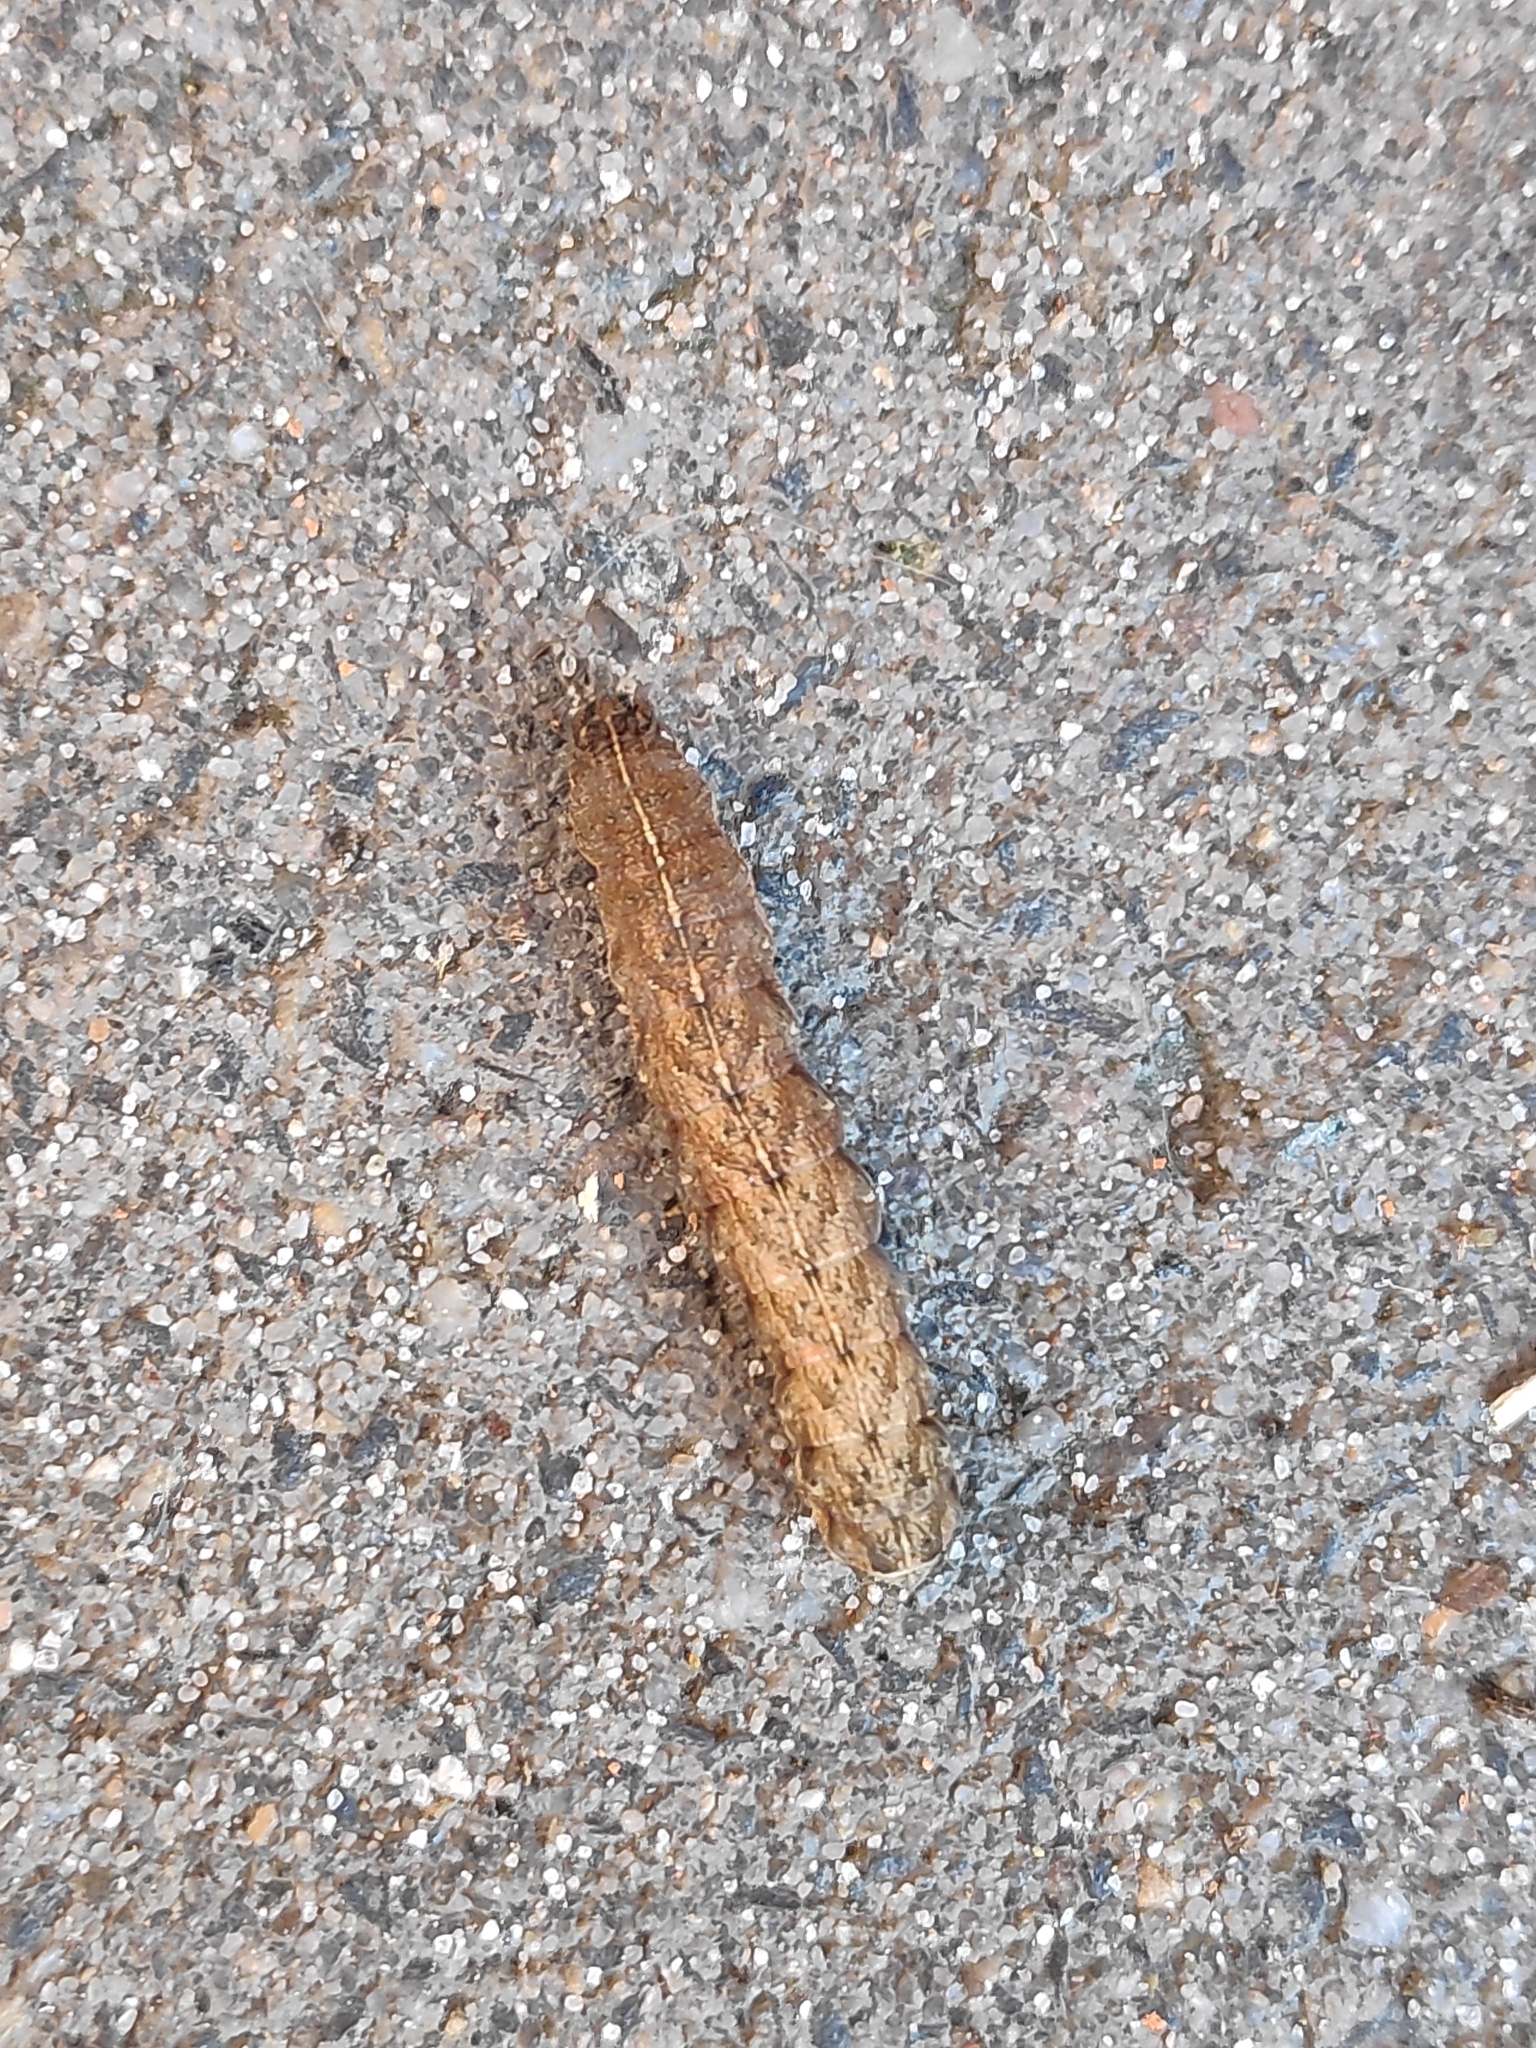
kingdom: Animalia
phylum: Arthropoda
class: Insecta
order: Lepidoptera
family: Noctuidae
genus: Agrochola
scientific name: Agrochola helvola
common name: Flounced chestnut
